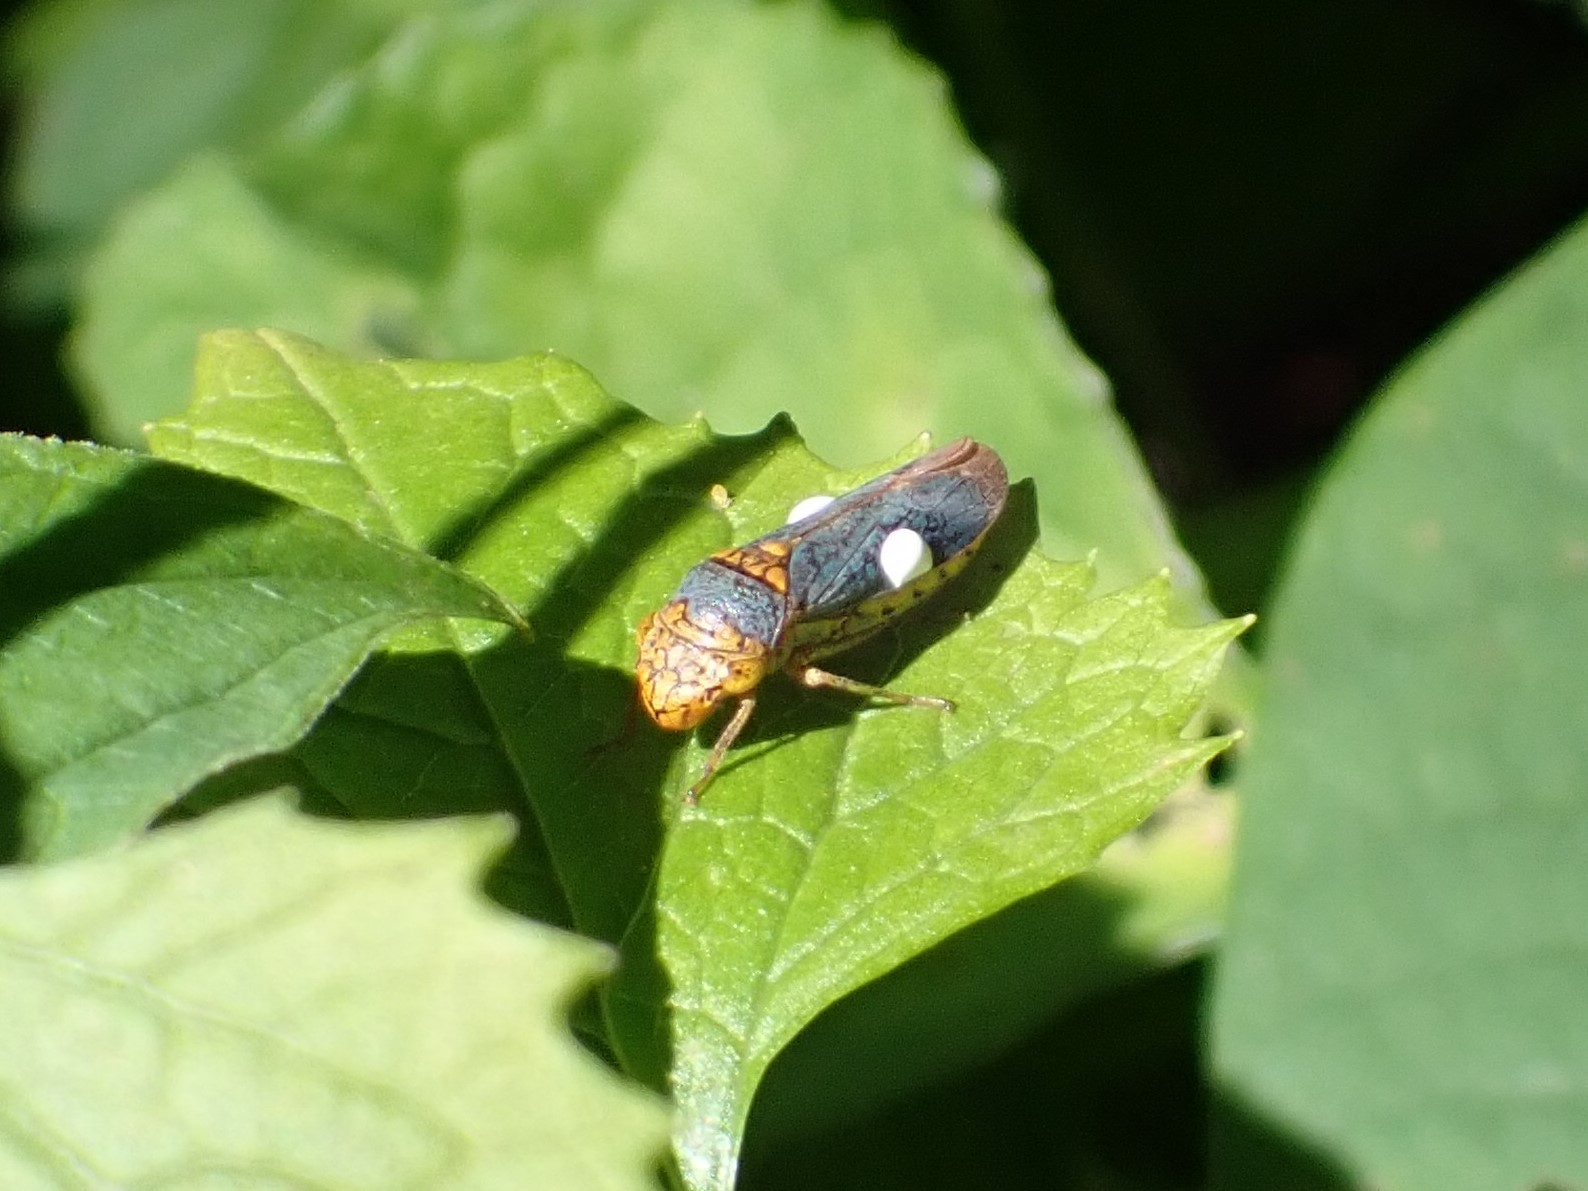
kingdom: Animalia
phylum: Arthropoda
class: Insecta
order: Hemiptera
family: Cicadellidae
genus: Oncometopia
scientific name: Oncometopia orbona
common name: Broad-headed sharpshooter
